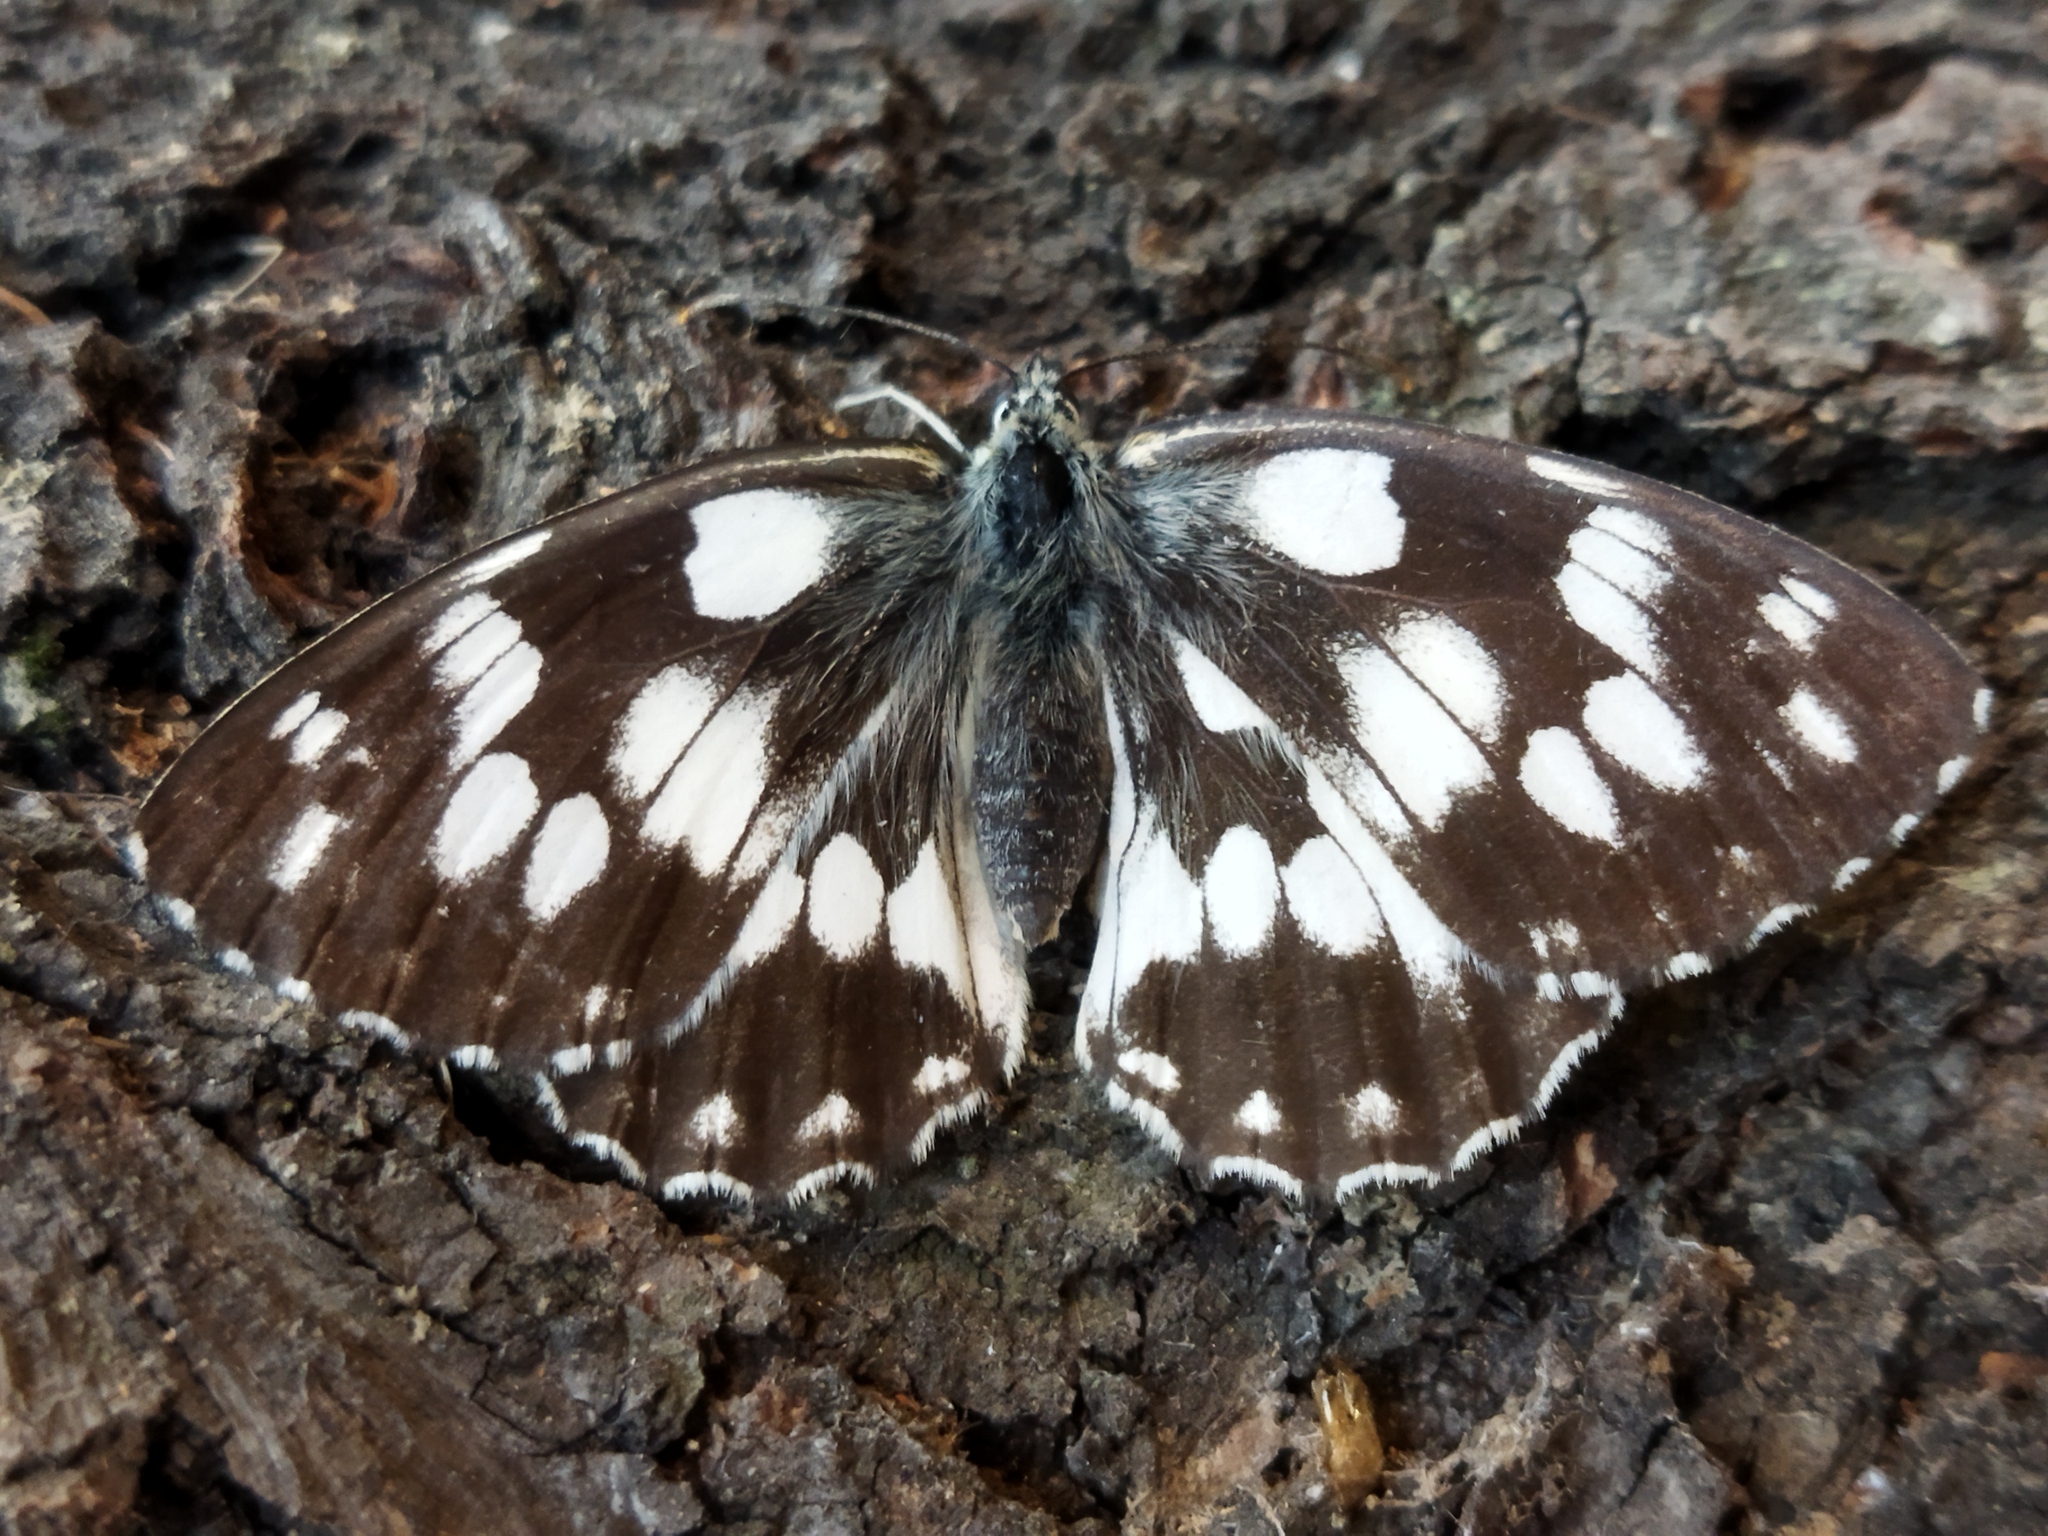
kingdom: Animalia
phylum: Arthropoda
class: Insecta
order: Lepidoptera
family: Nymphalidae
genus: Melanargia
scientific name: Melanargia galathea
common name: Marbled white
